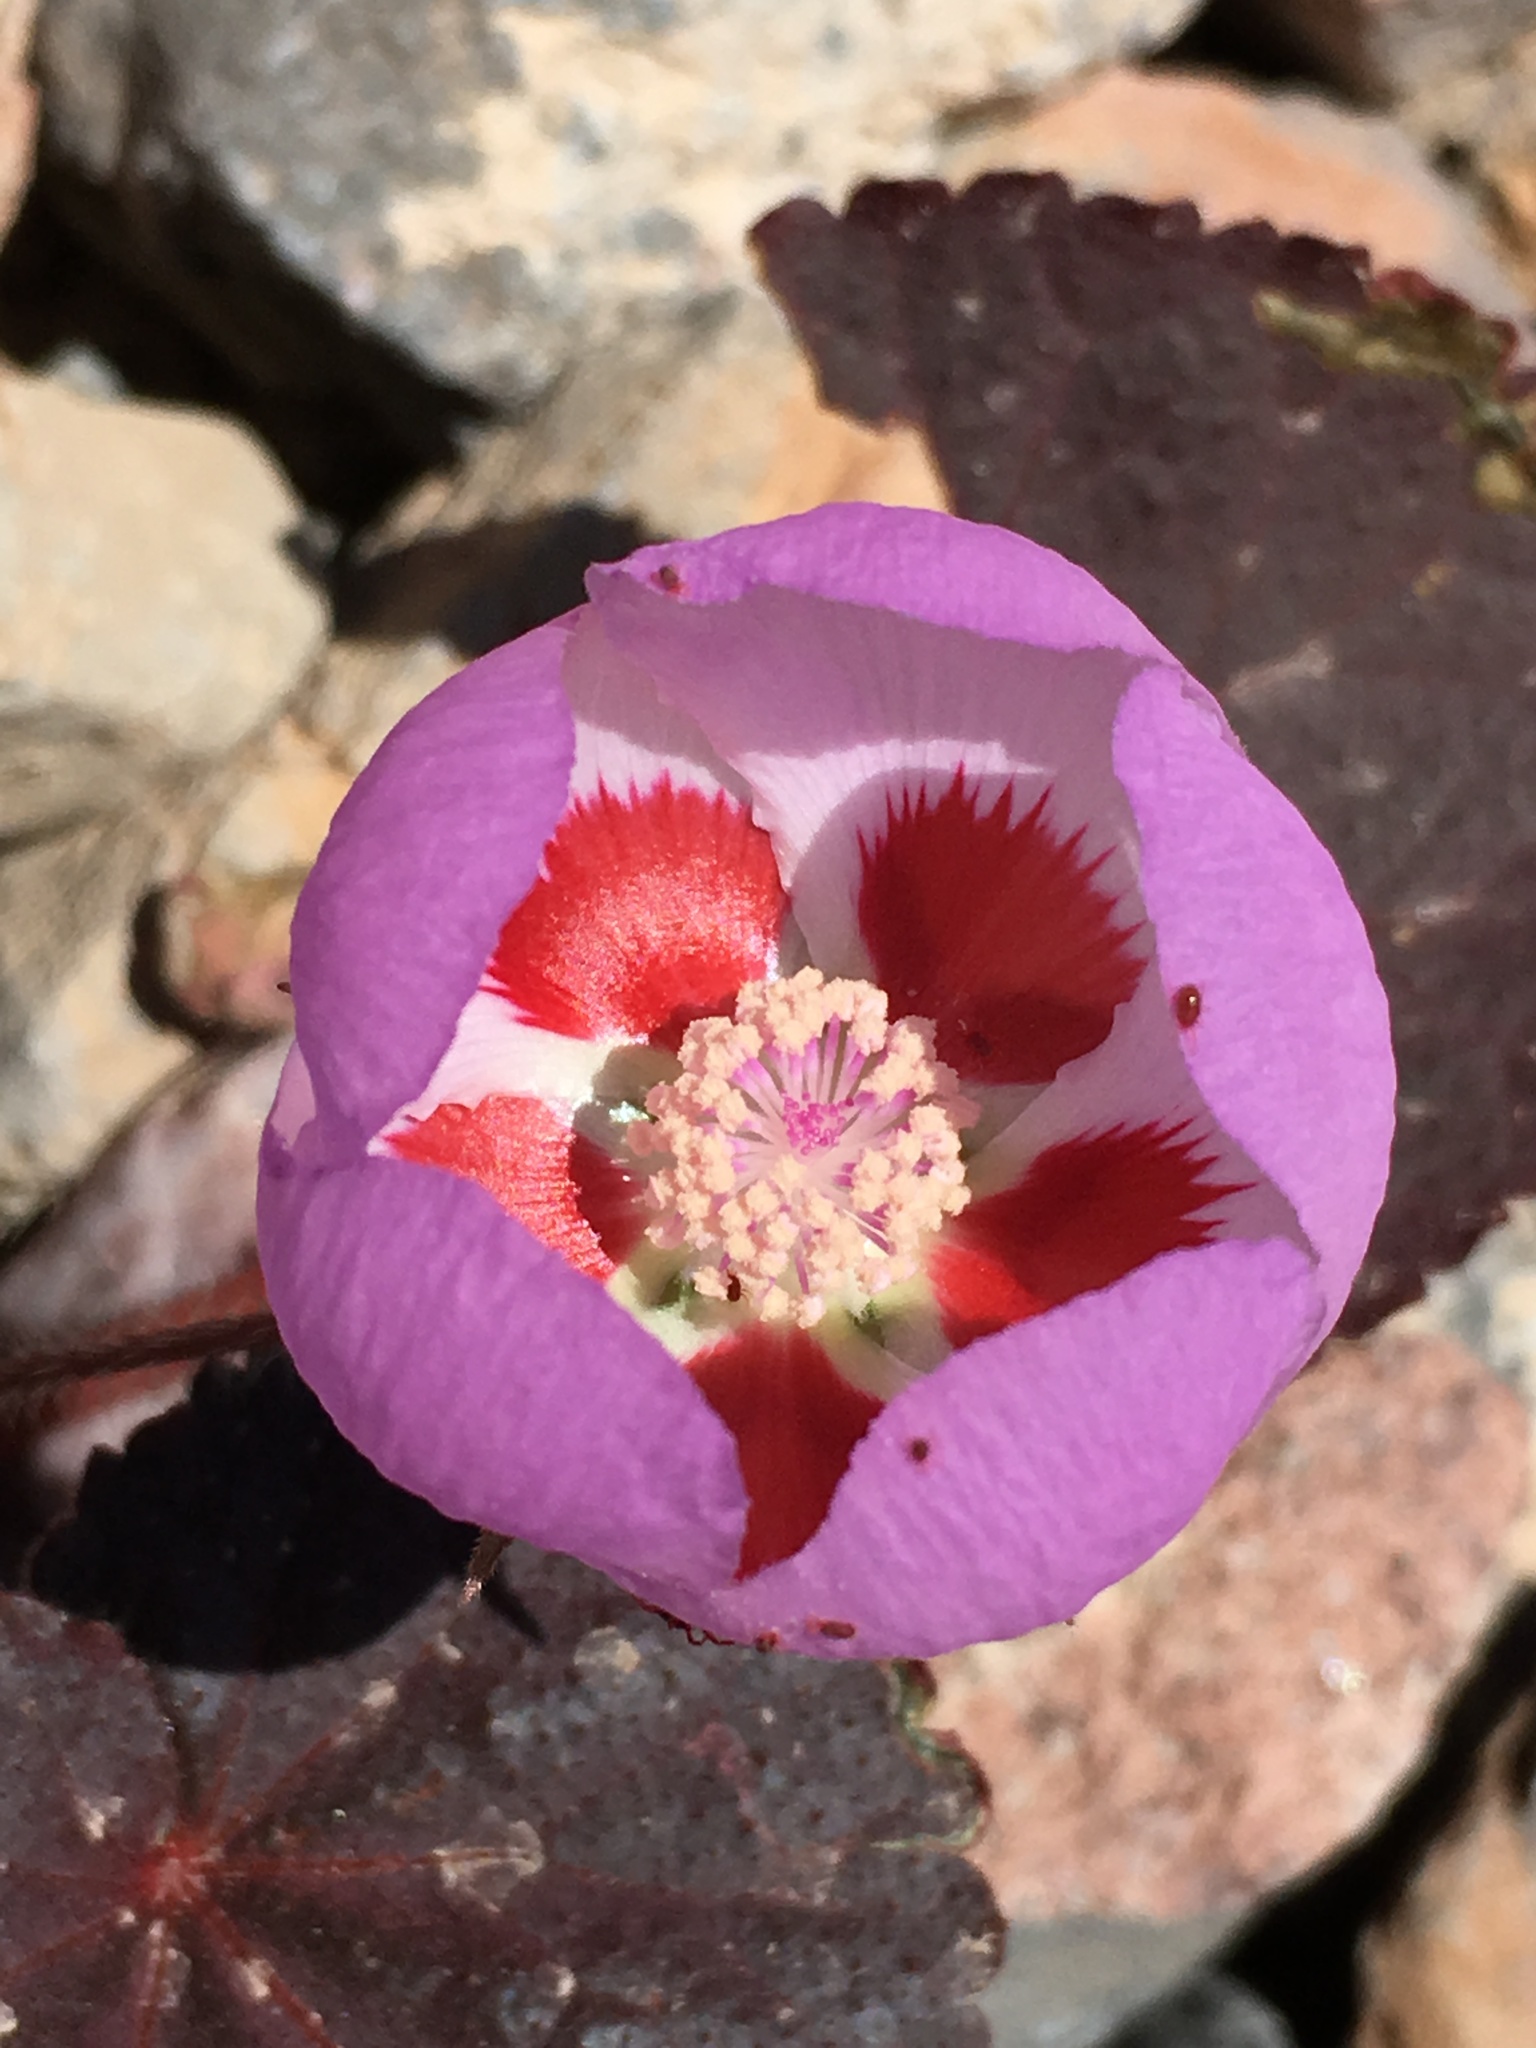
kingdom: Plantae
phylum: Tracheophyta
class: Magnoliopsida
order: Malvales
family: Malvaceae
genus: Eremalche
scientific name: Eremalche rotundifolia
